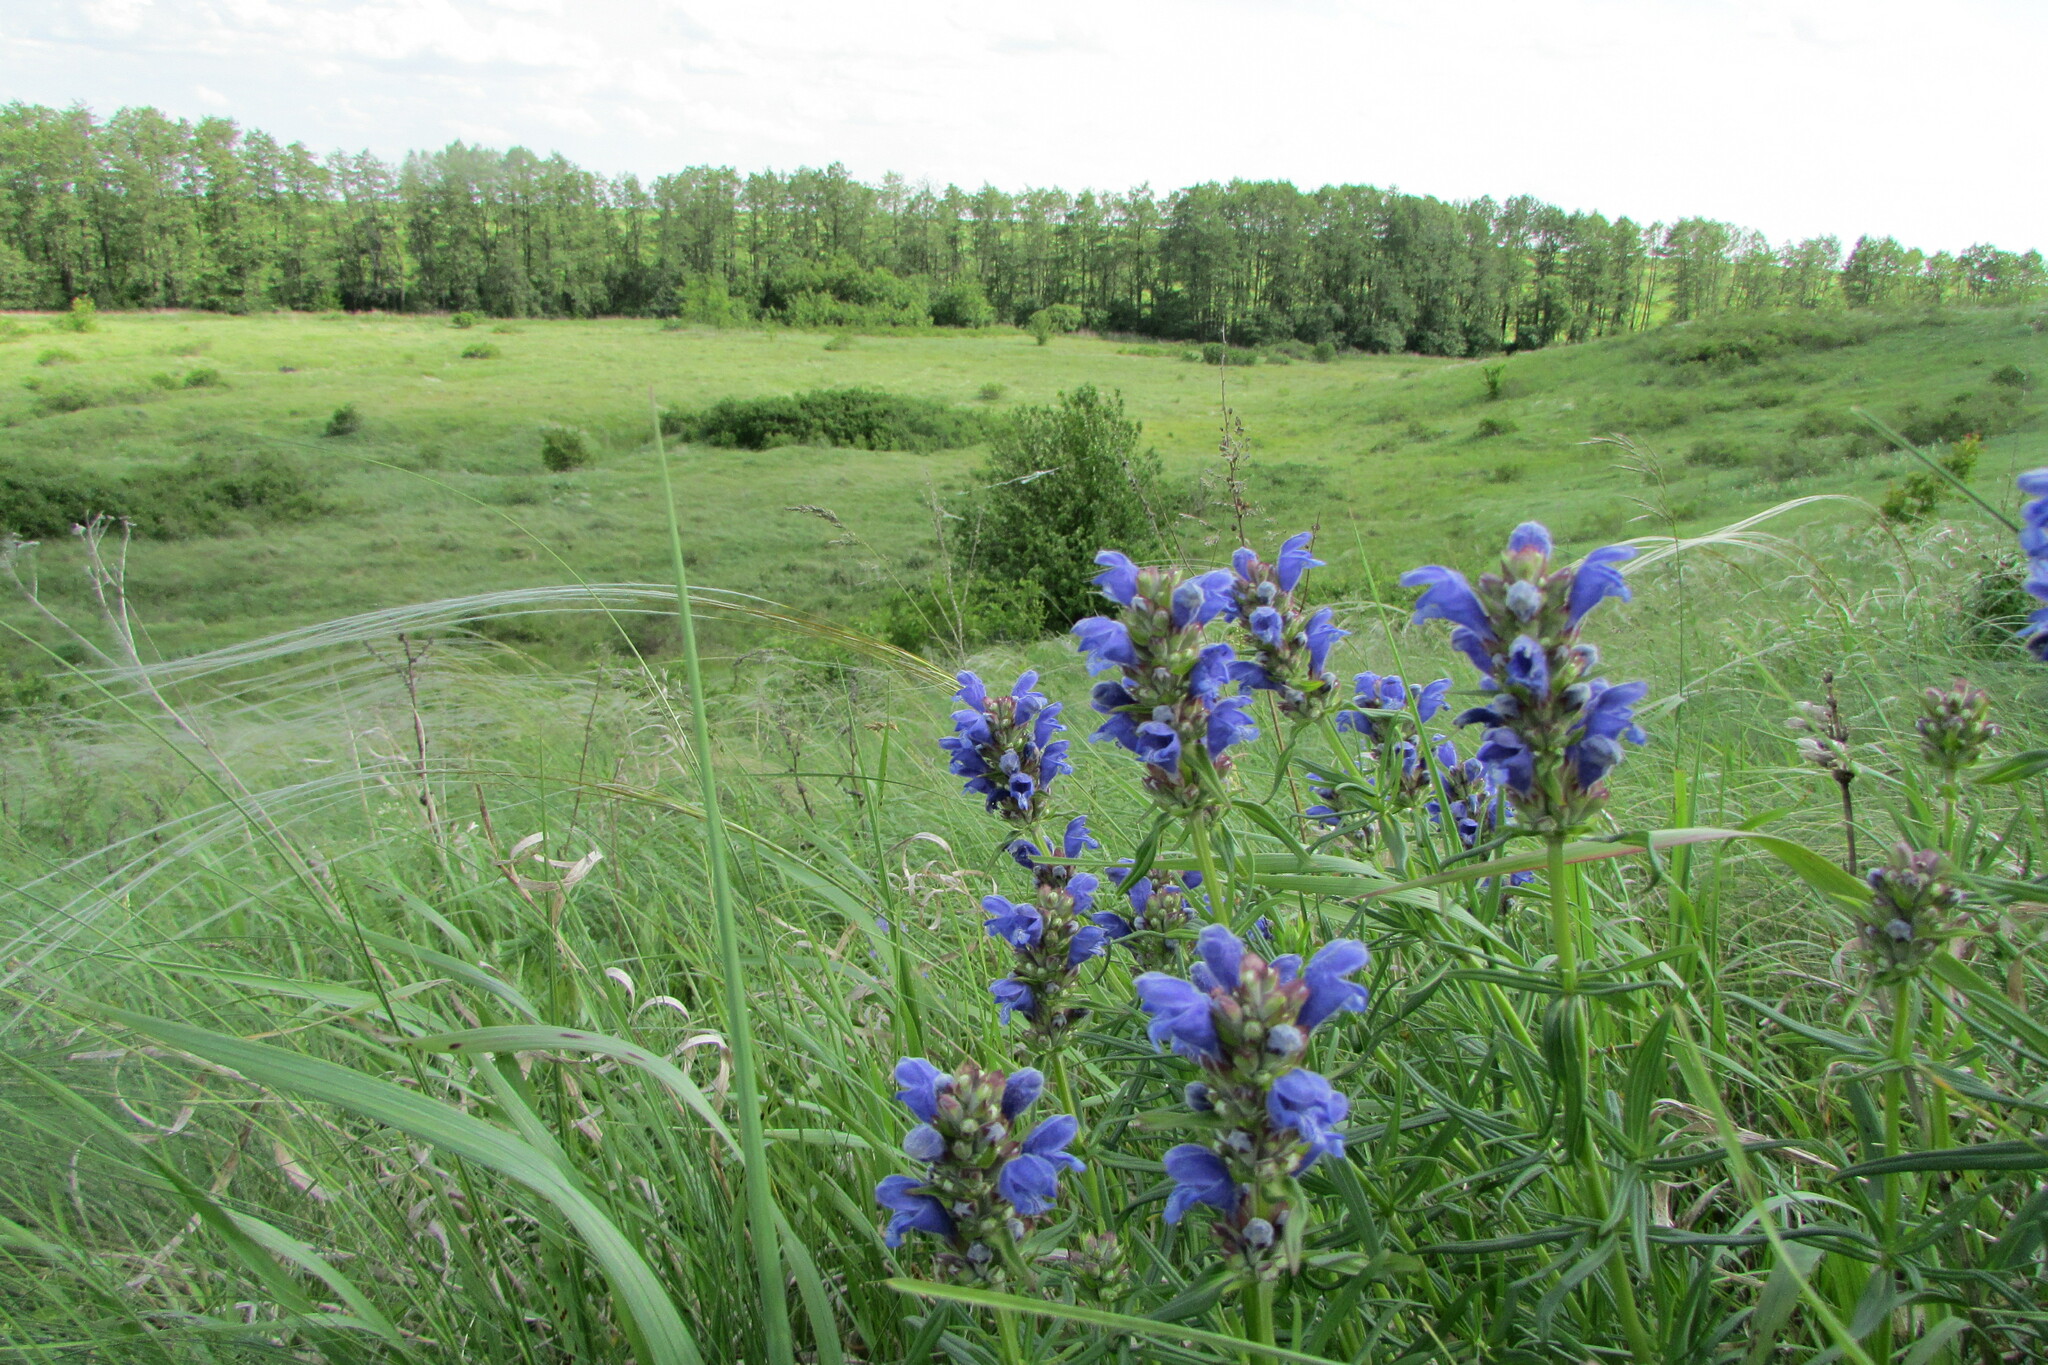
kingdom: Plantae
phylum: Tracheophyta
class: Magnoliopsida
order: Lamiales
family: Lamiaceae
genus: Dracocephalum
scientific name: Dracocephalum ruyschiana
